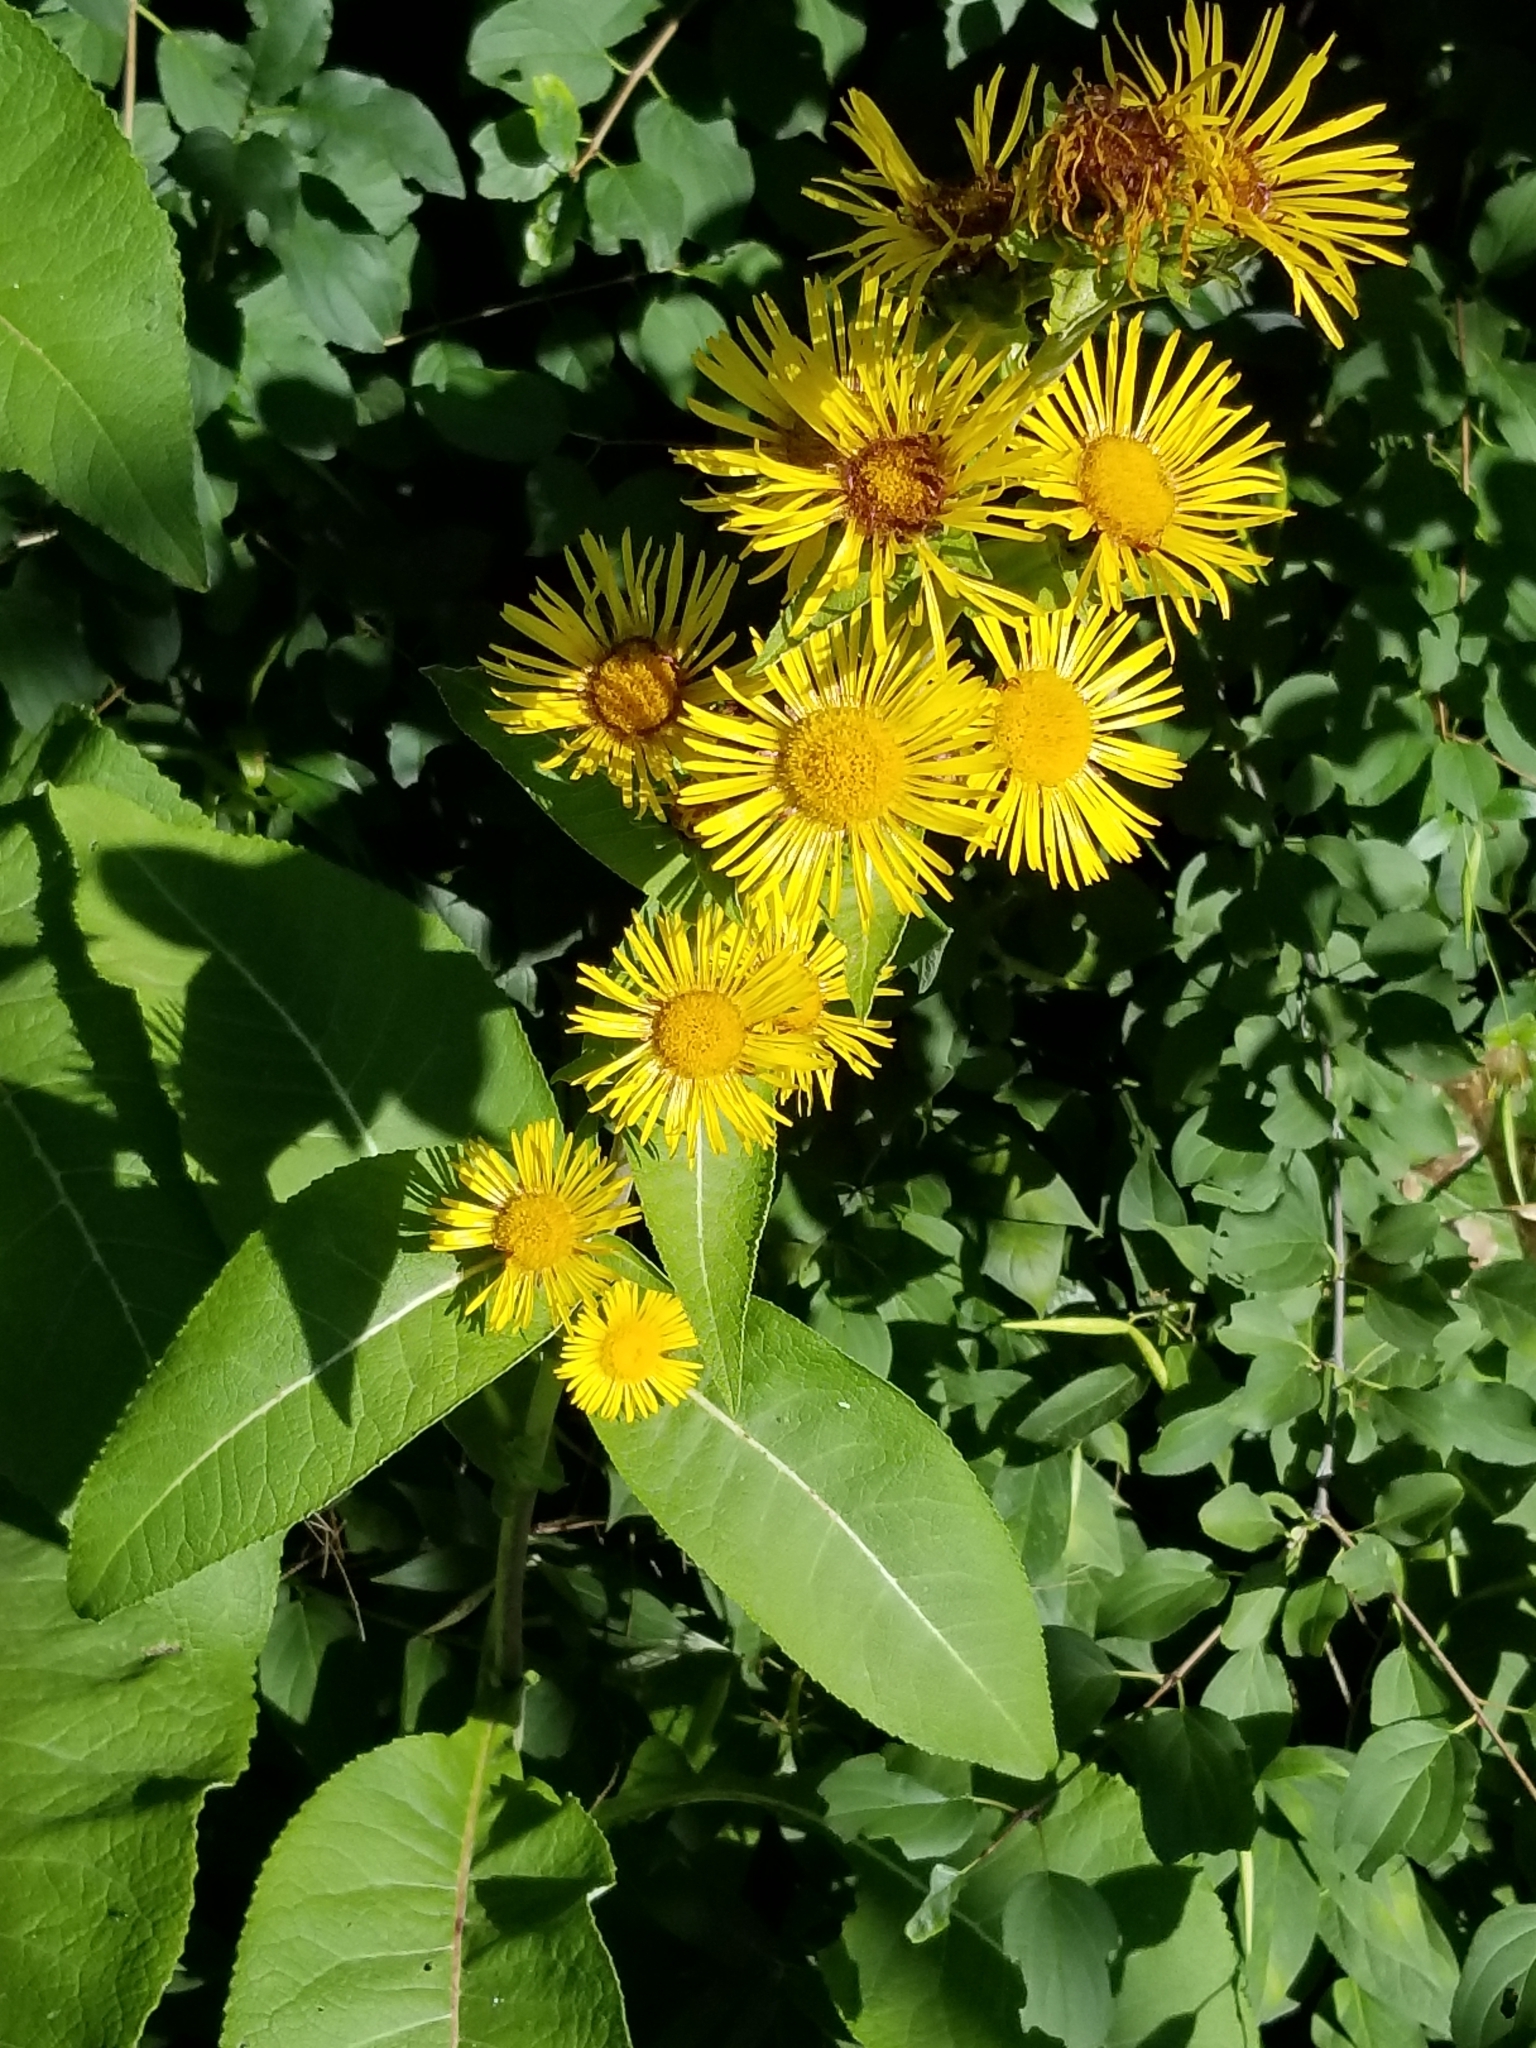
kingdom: Plantae
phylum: Tracheophyta
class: Magnoliopsida
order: Asterales
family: Asteraceae
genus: Inula
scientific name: Inula racemosa
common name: Indian elecampane
